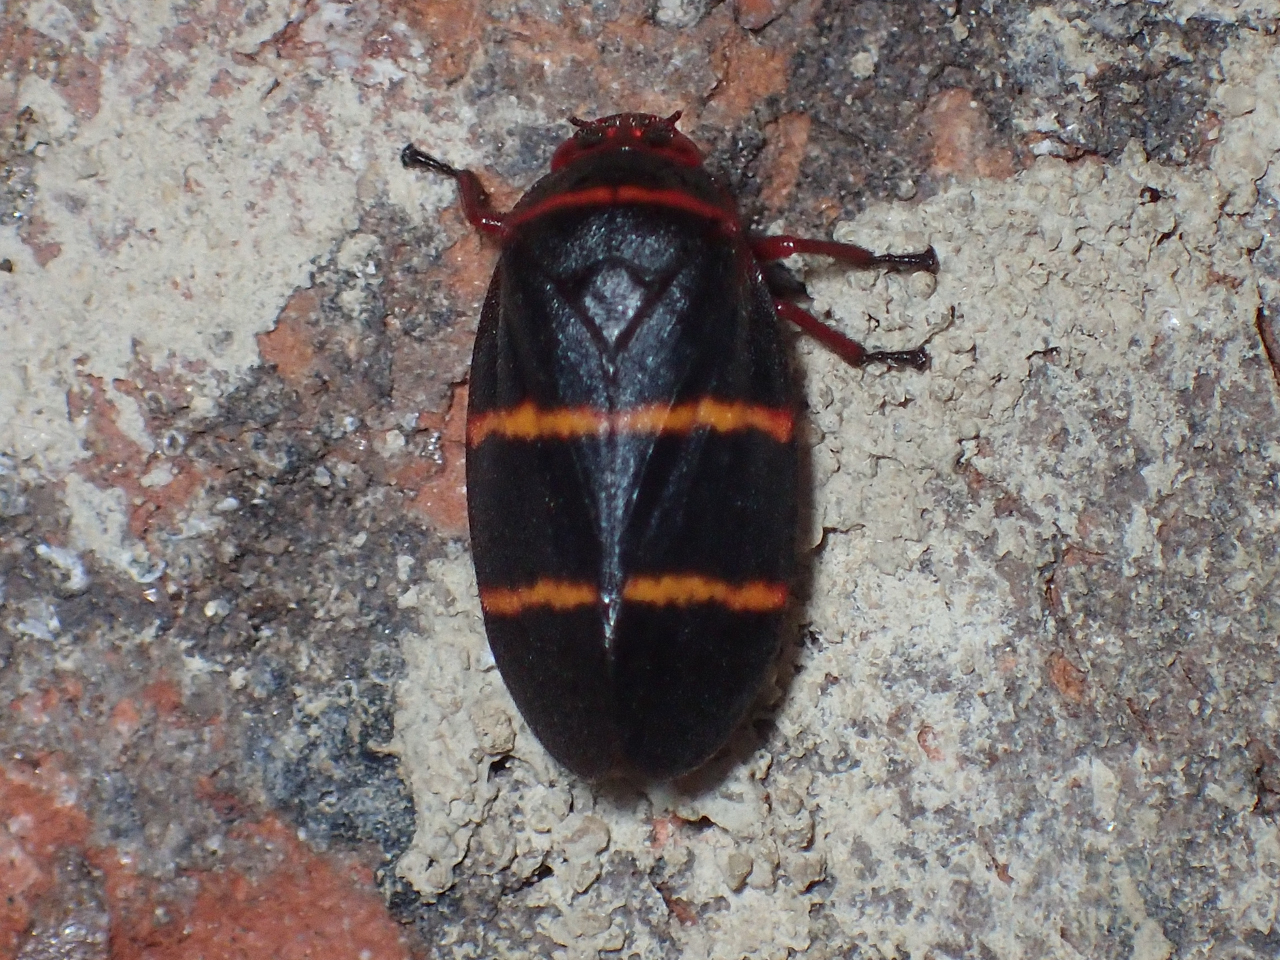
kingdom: Animalia
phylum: Arthropoda
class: Insecta
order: Hemiptera
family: Cercopidae
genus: Prosapia
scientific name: Prosapia bicincta
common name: Twolined spittlebug
